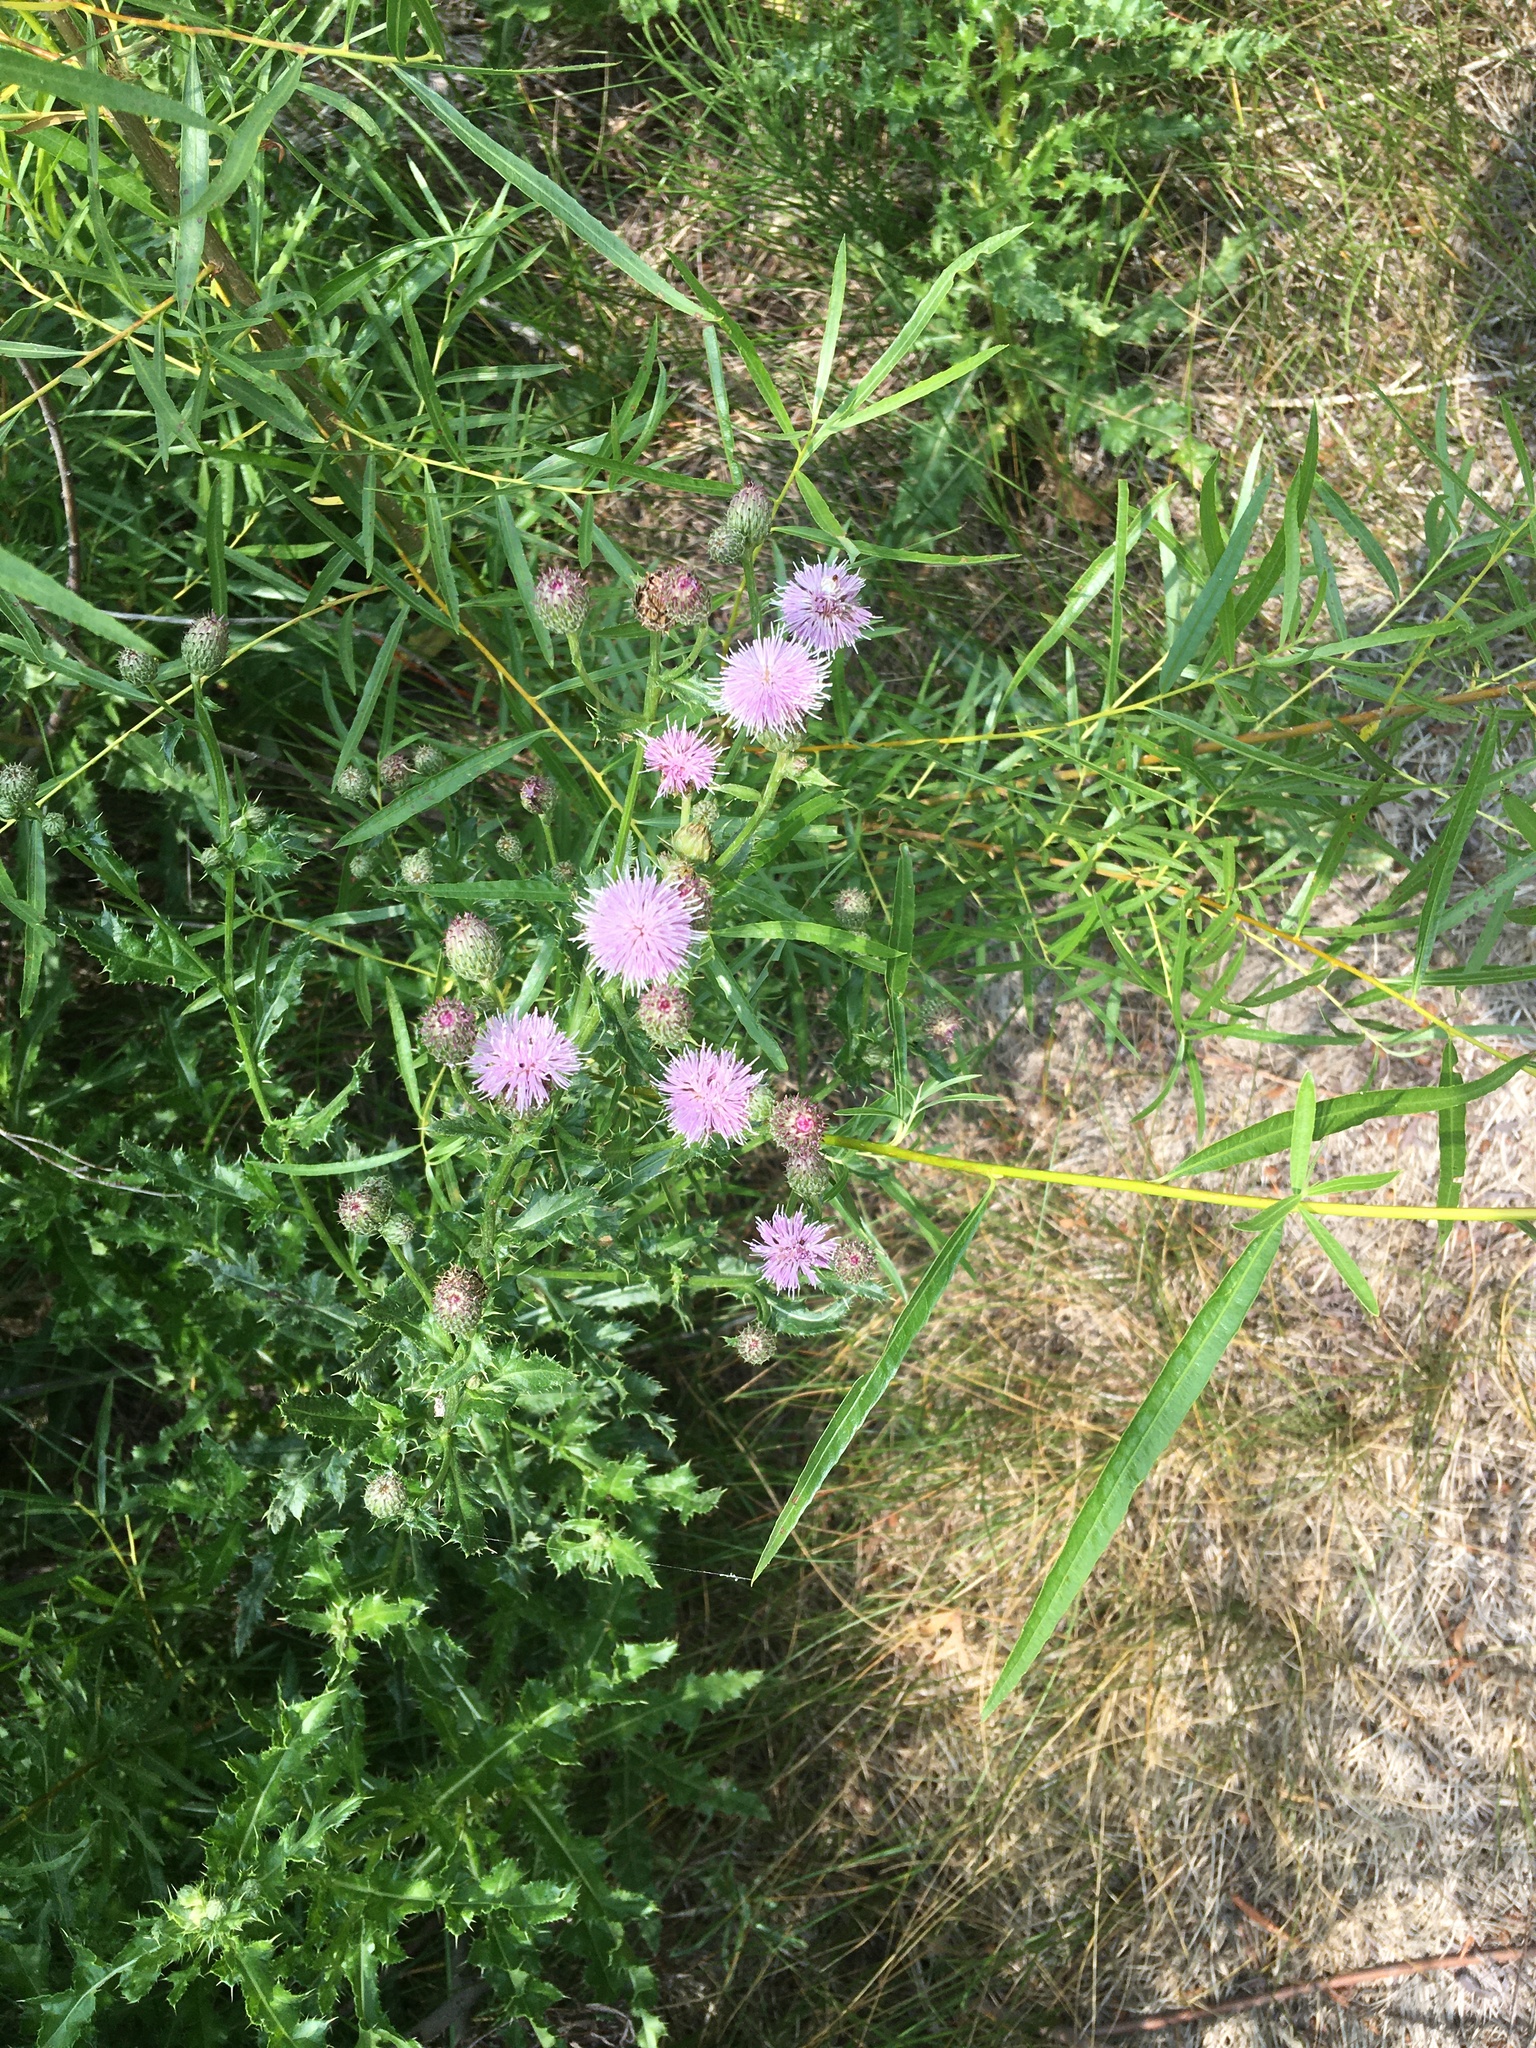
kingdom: Plantae
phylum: Tracheophyta
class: Magnoliopsida
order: Asterales
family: Asteraceae
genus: Cirsium
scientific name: Cirsium arvense
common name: Creeping thistle
